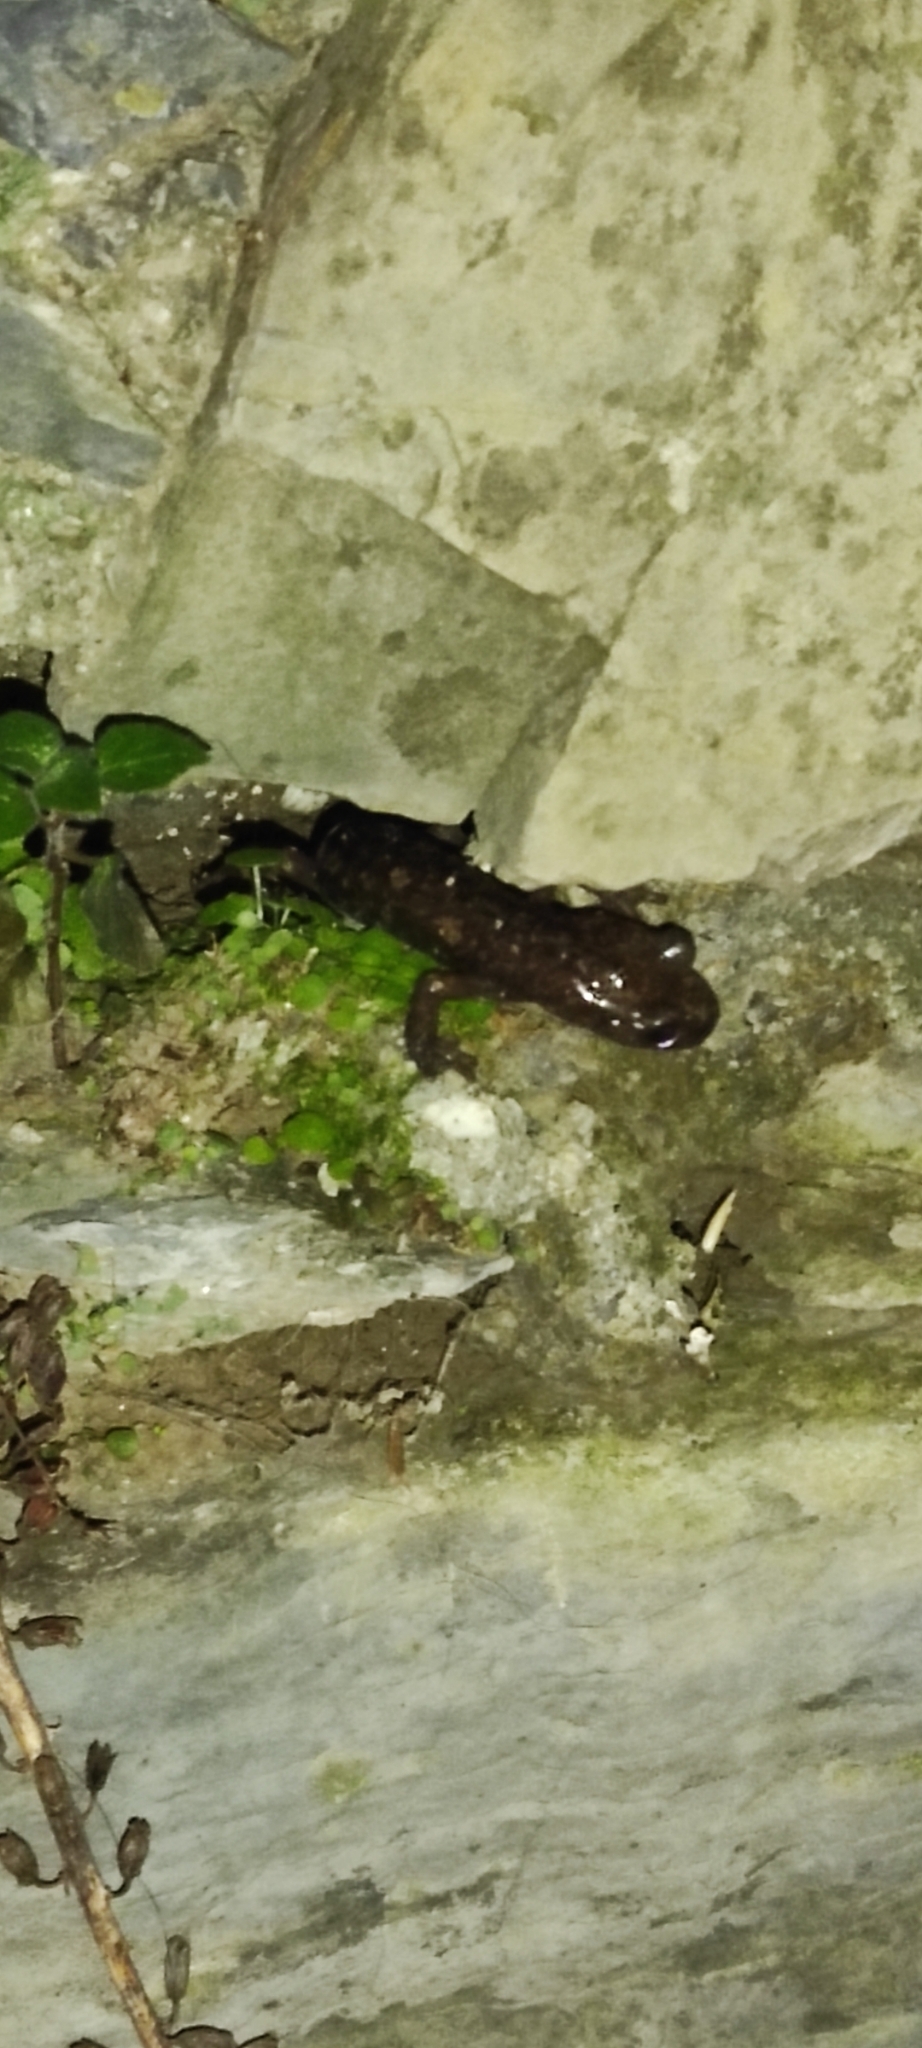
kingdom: Animalia
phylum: Chordata
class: Amphibia
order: Caudata
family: Plethodontidae
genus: Speleomantes
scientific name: Speleomantes strinatii
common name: French cave salamander
